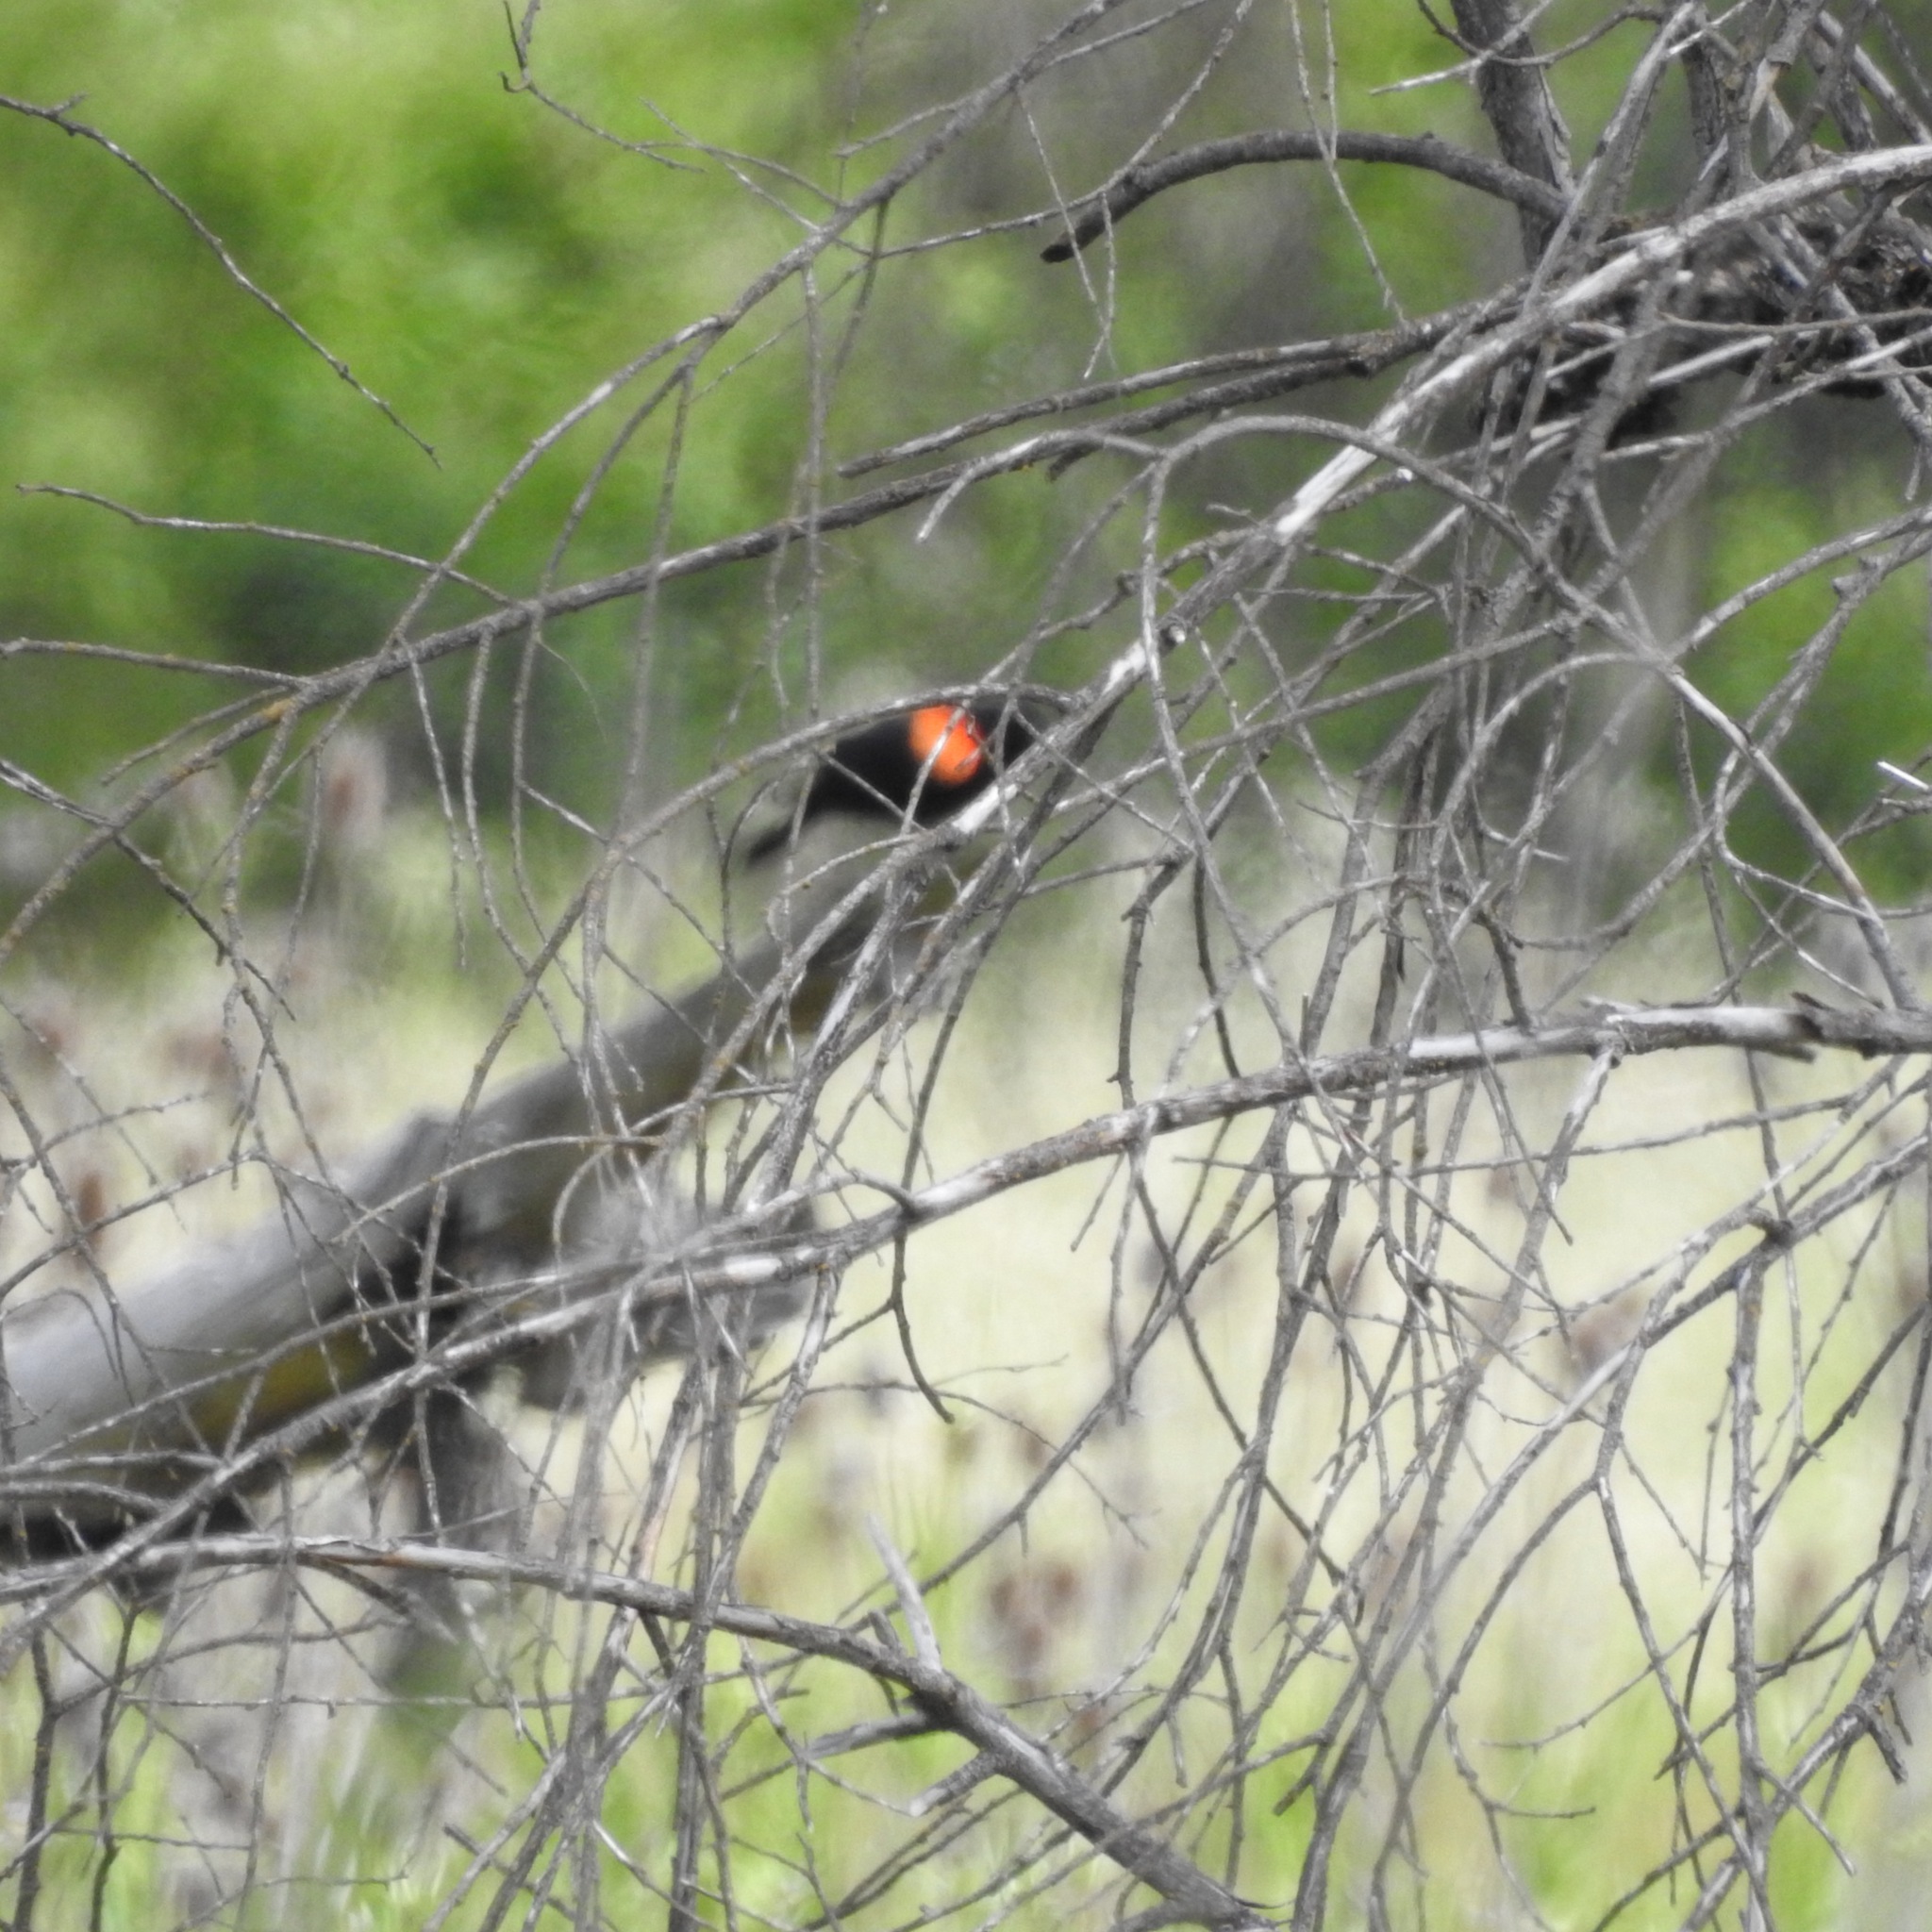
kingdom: Animalia
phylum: Chordata
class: Aves
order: Passeriformes
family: Icteridae
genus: Agelaius
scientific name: Agelaius phoeniceus
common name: Red-winged blackbird
